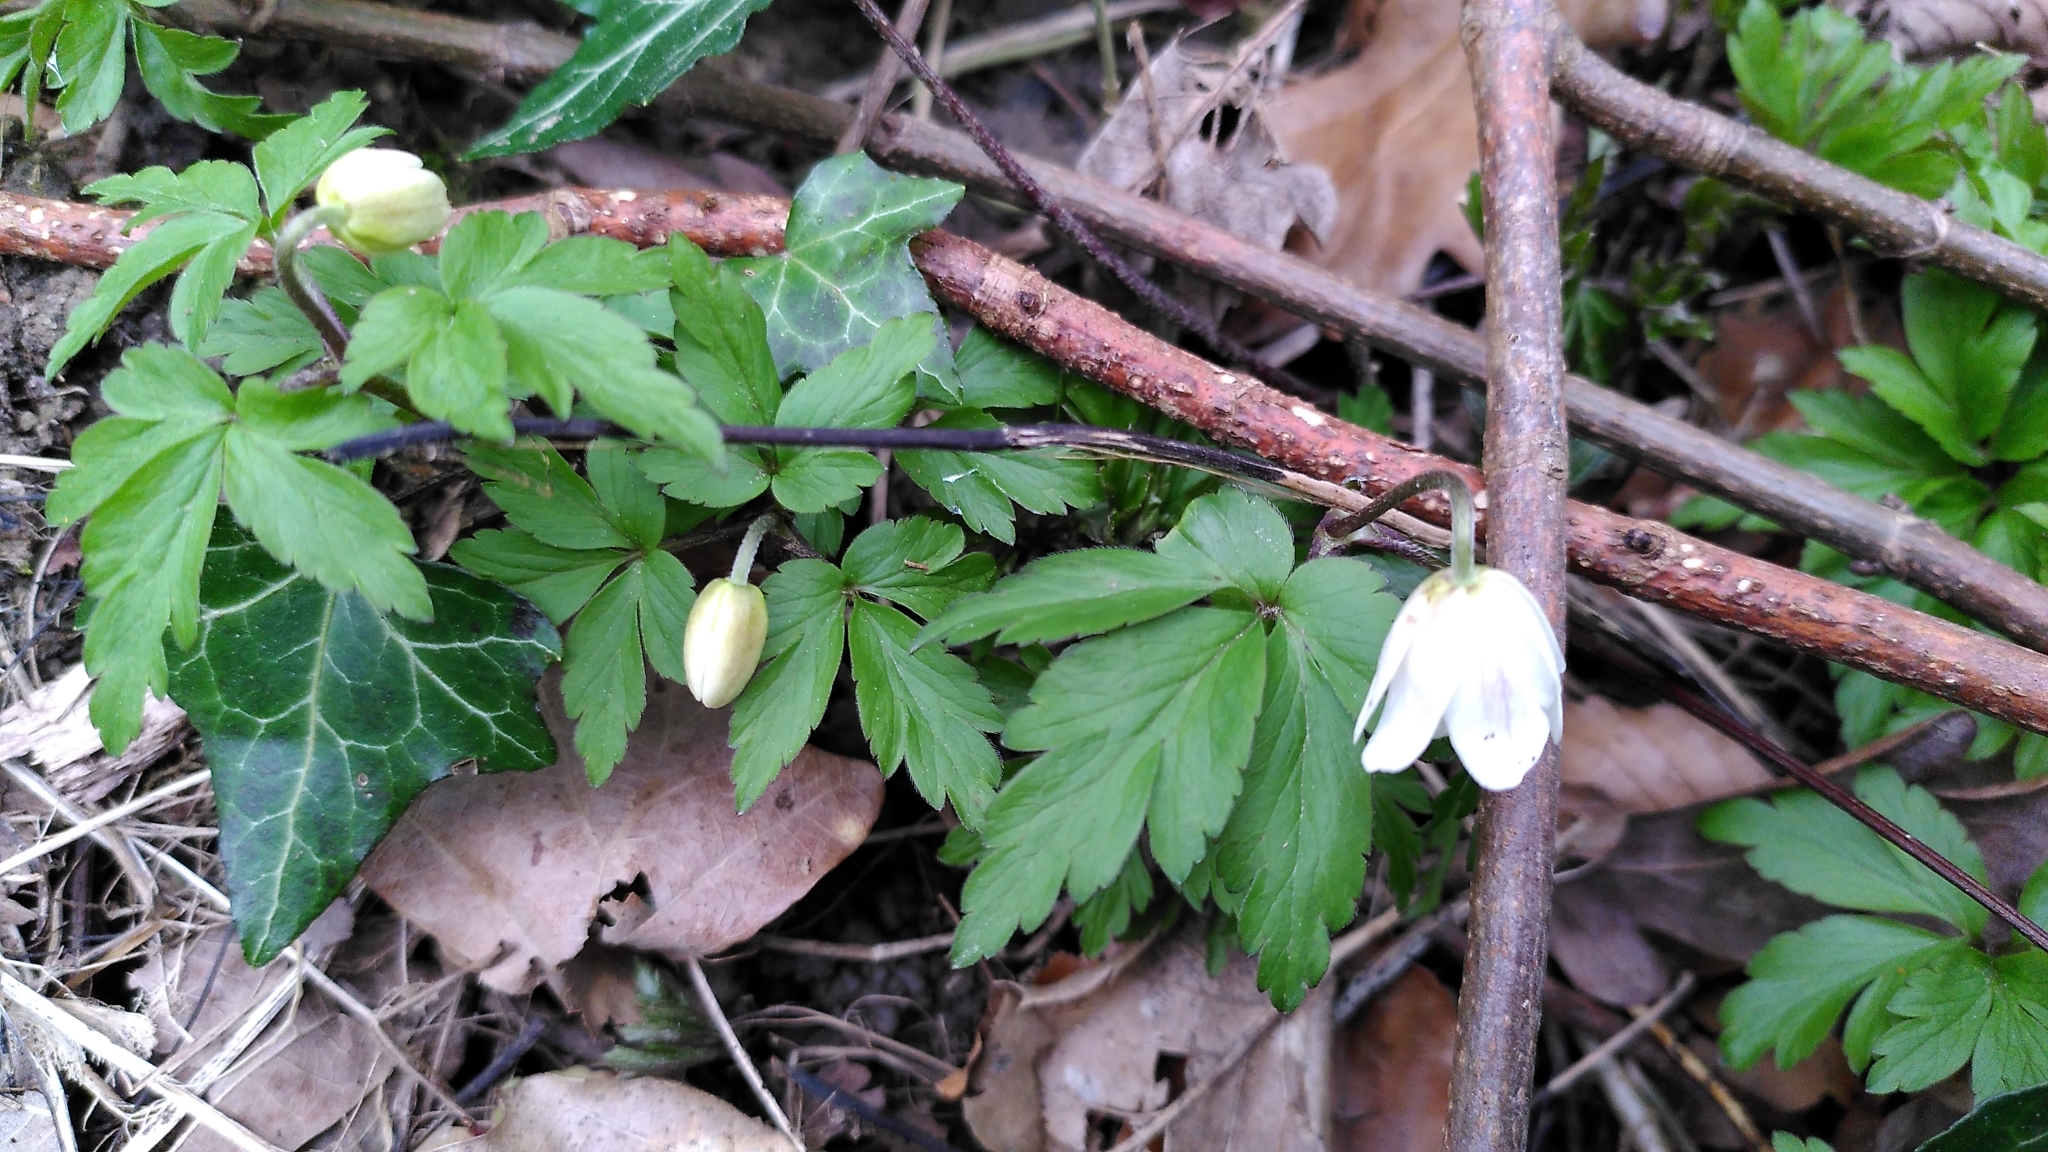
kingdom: Plantae
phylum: Tracheophyta
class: Magnoliopsida
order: Ranunculales
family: Ranunculaceae
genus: Anemone
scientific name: Anemone nemorosa
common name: Wood anemone
